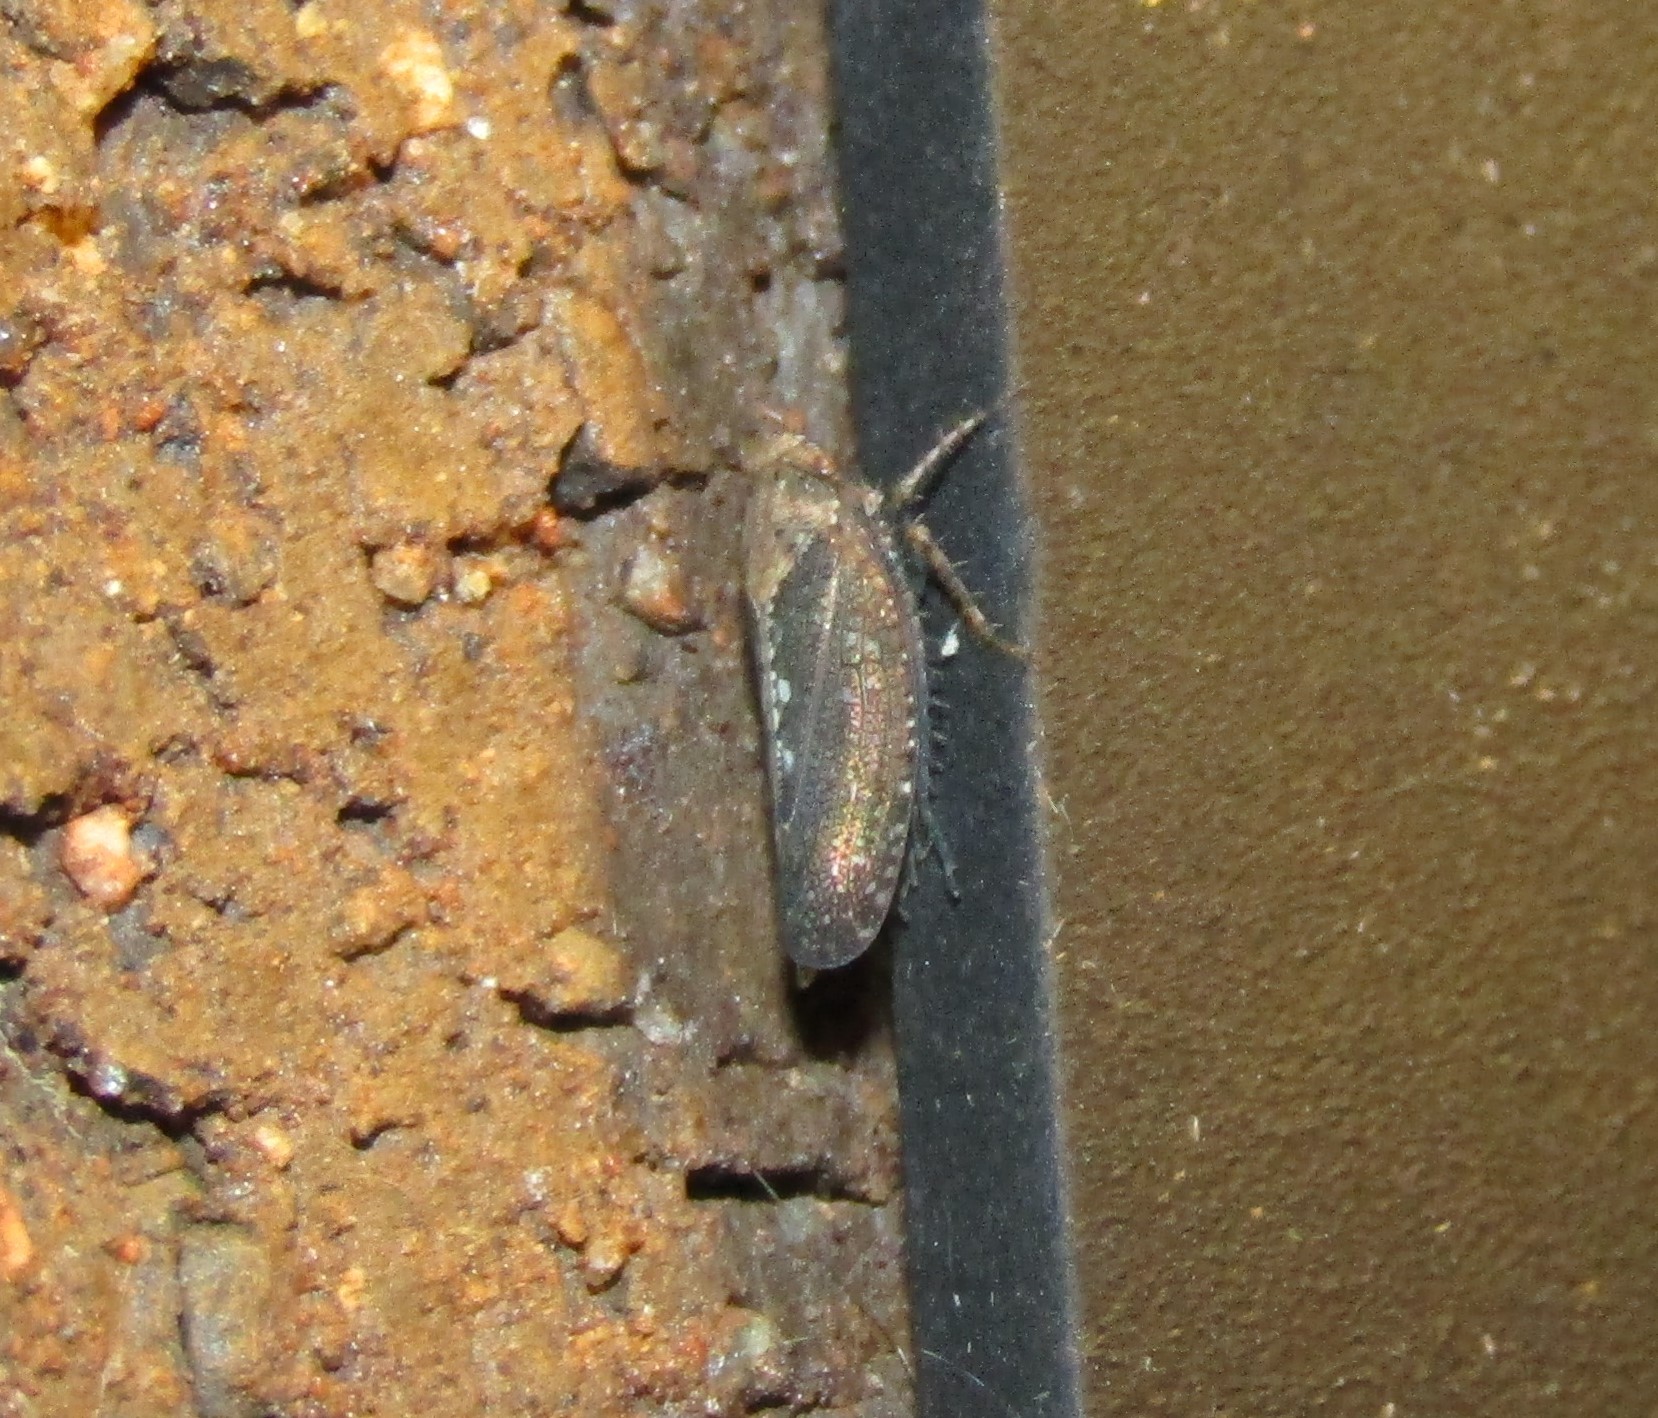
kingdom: Animalia
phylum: Arthropoda
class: Insecta
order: Hemiptera
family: Cicadellidae
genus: Excultanus
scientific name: Excultanus excultus
